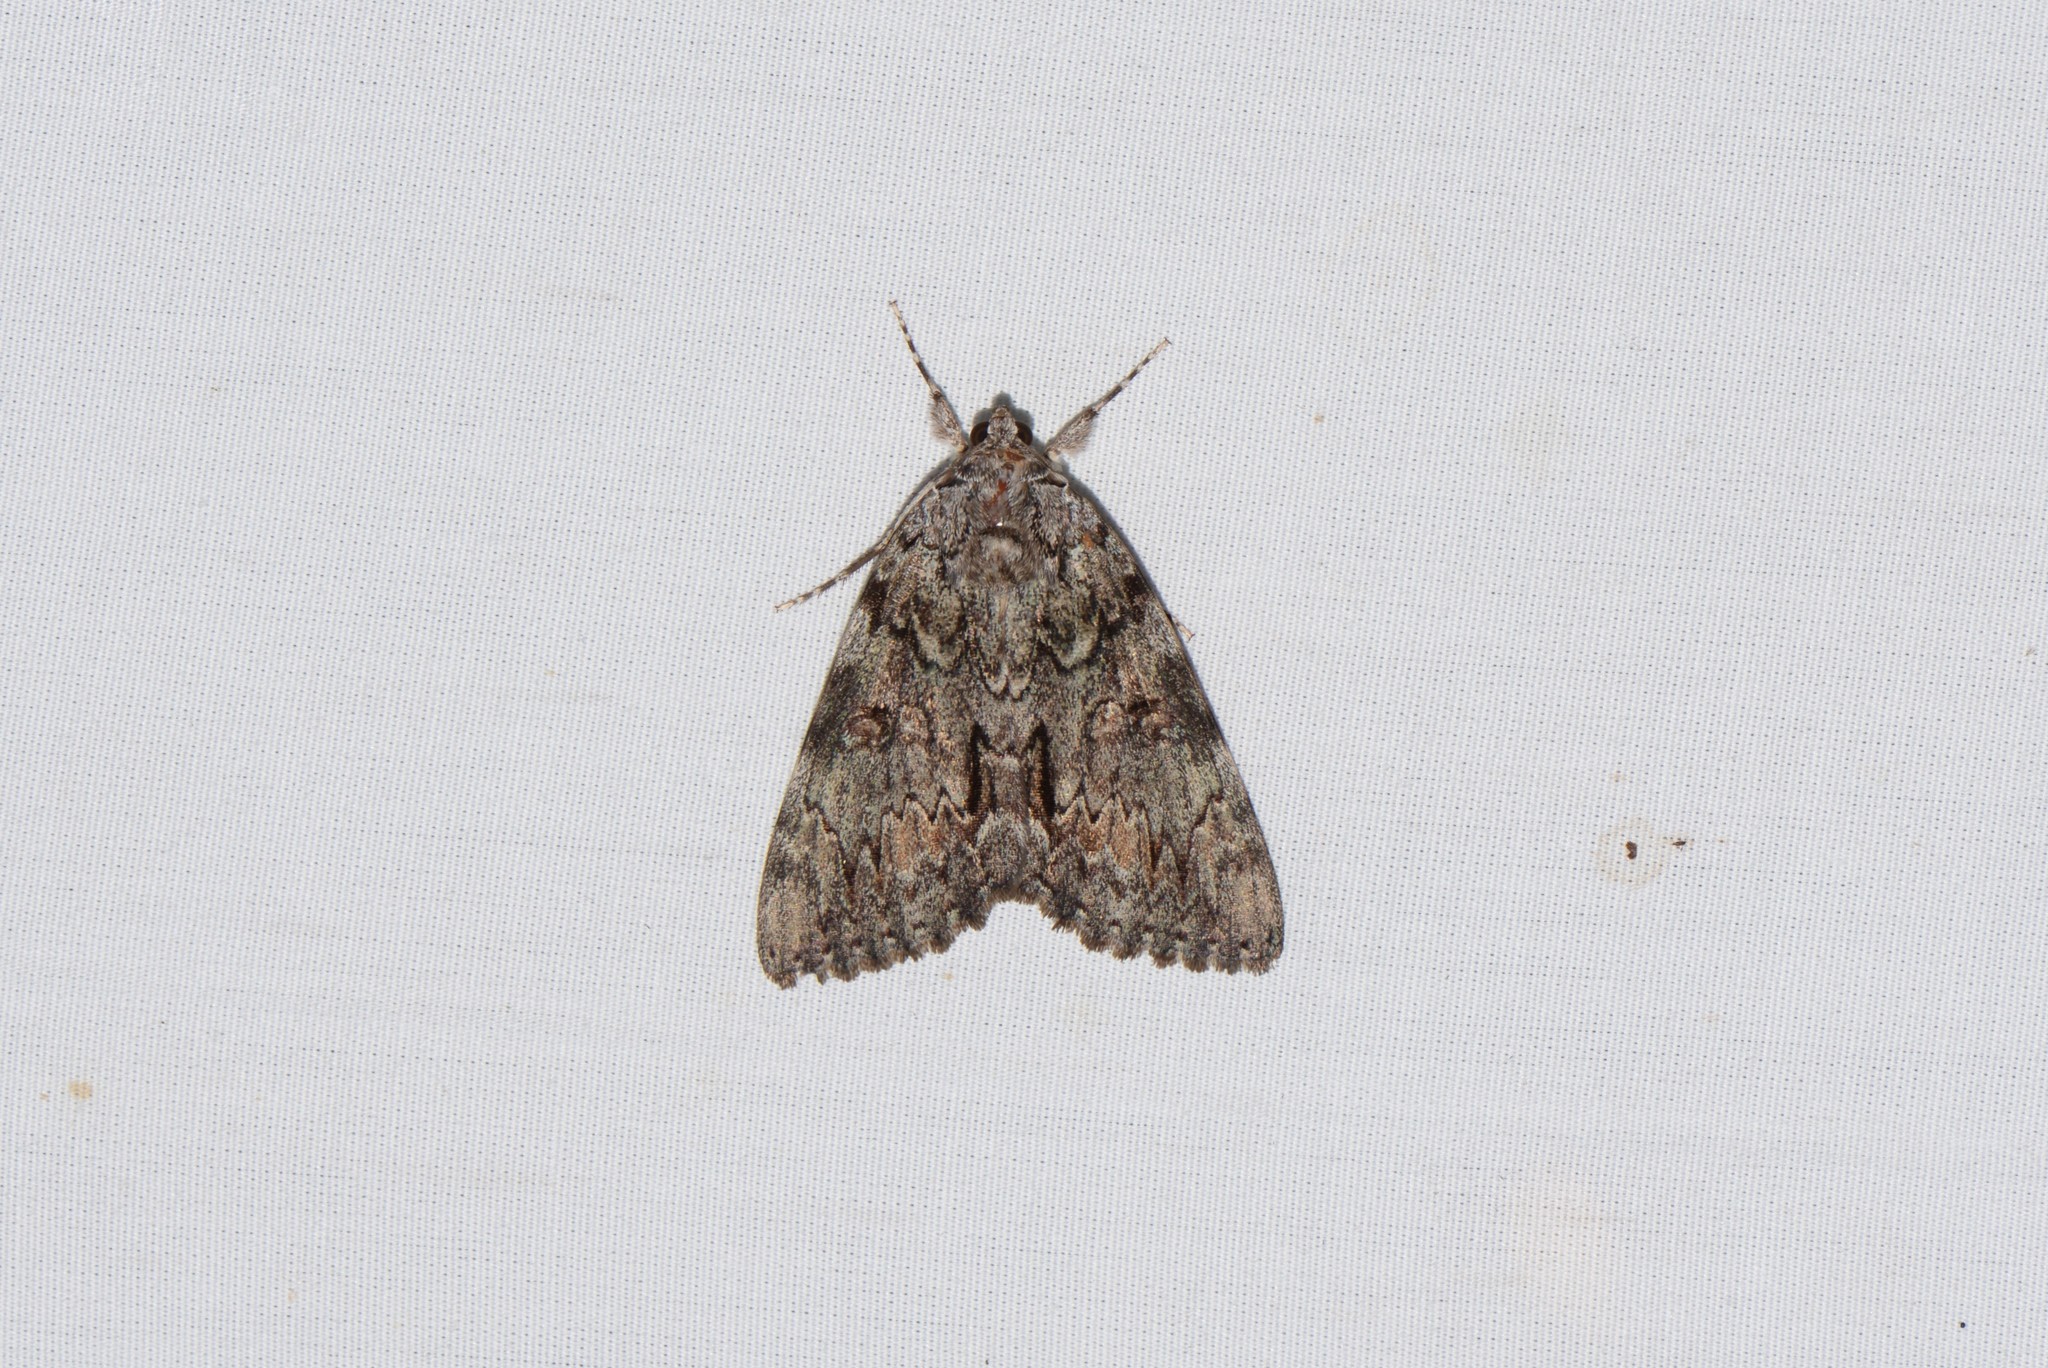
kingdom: Animalia
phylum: Arthropoda
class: Insecta
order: Lepidoptera
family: Erebidae
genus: Catocala
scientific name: Catocala palaeogama
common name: Oldwife underwing
